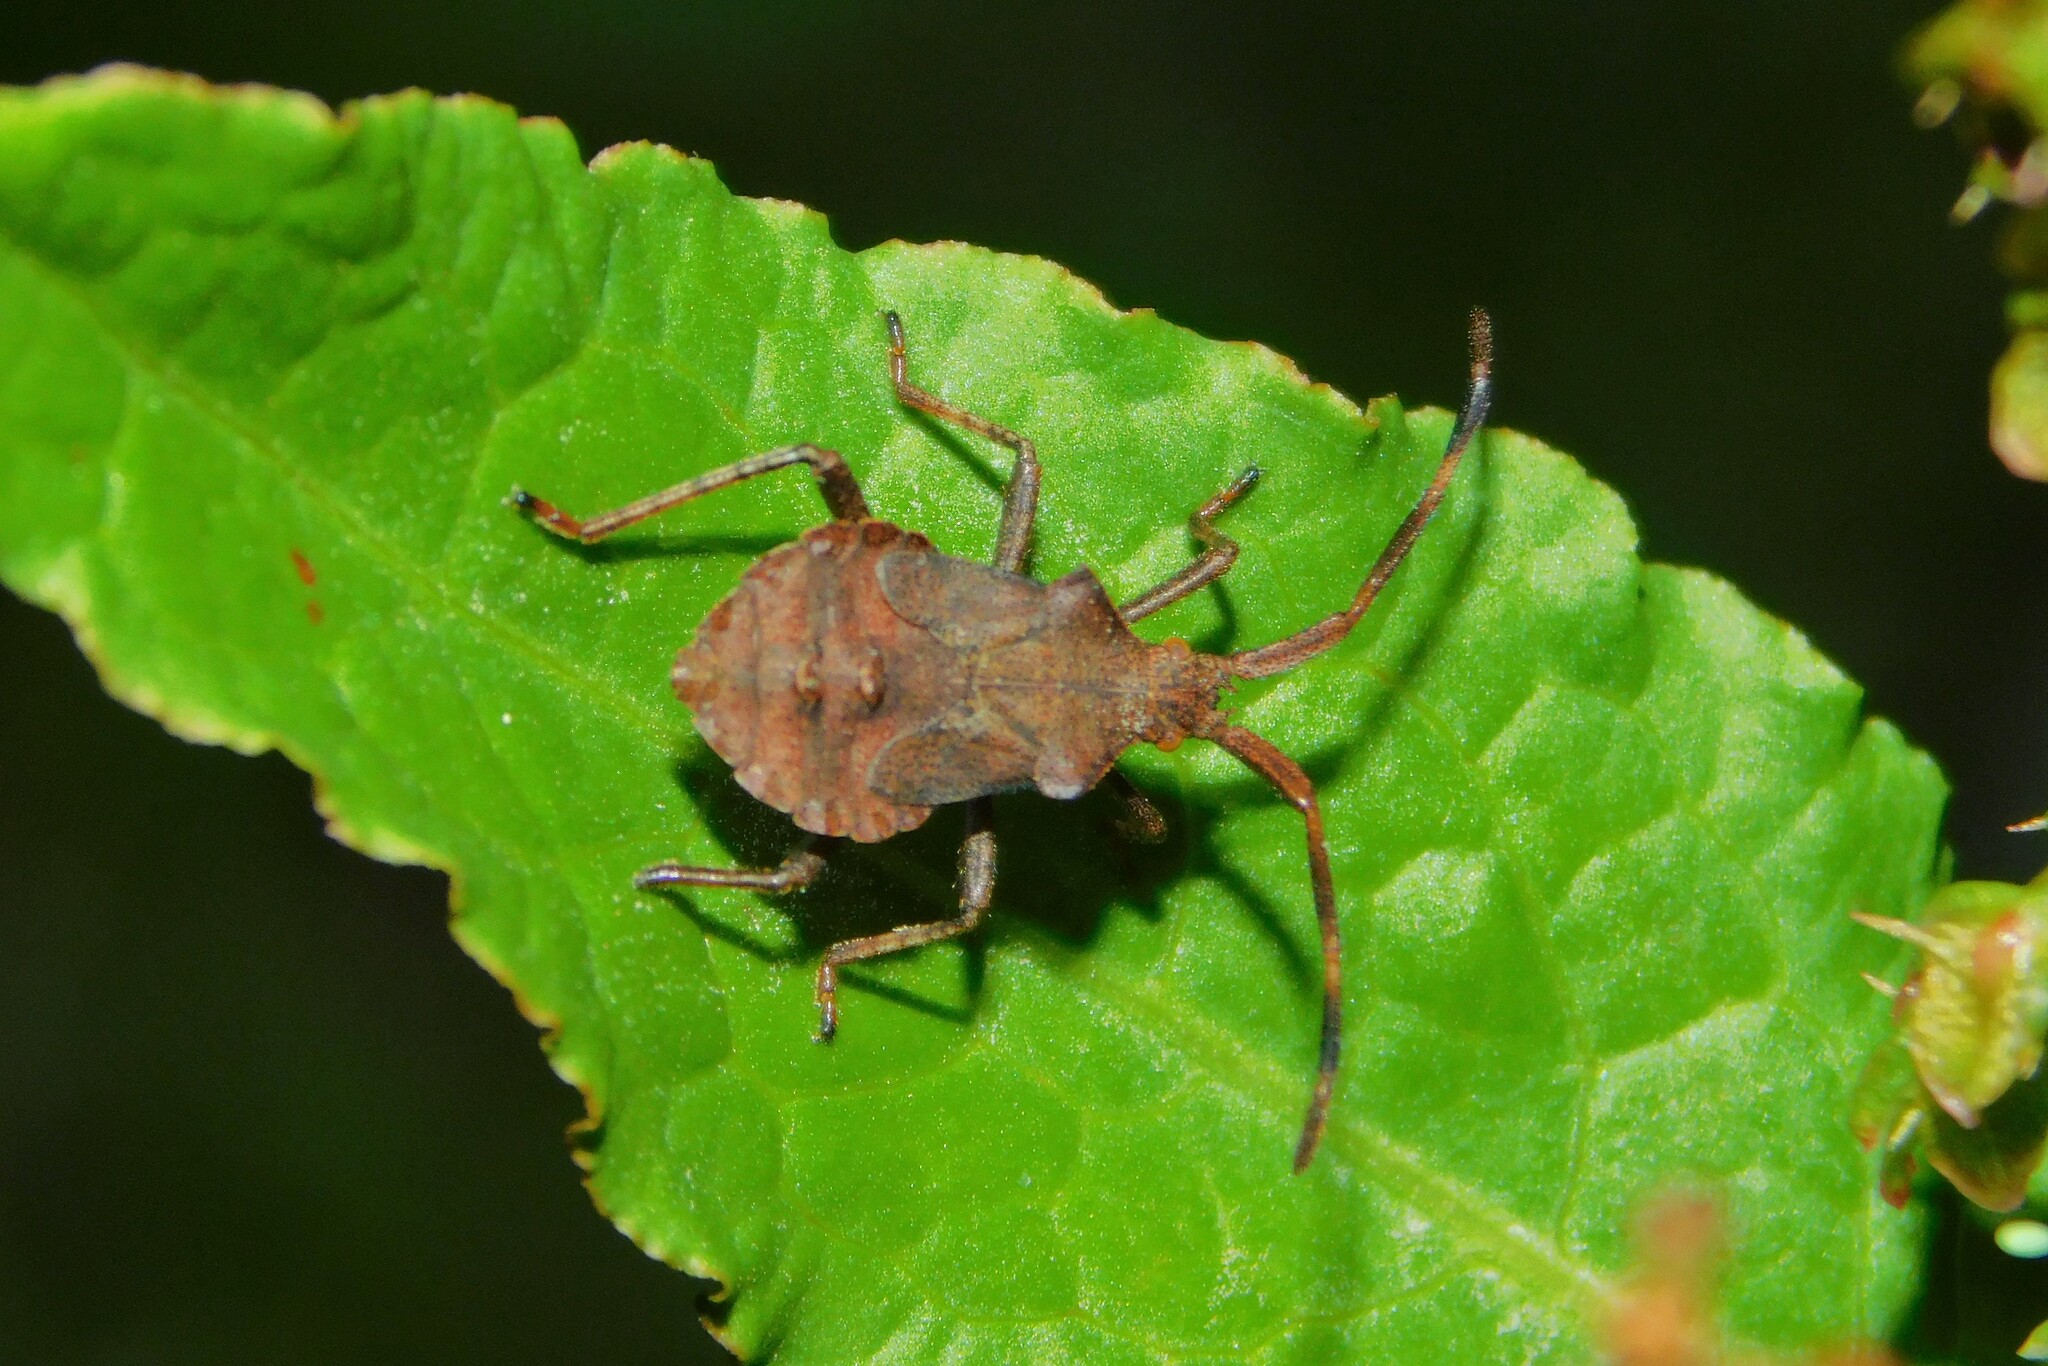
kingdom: Animalia
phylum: Arthropoda
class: Insecta
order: Hemiptera
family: Coreidae
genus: Coreus
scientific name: Coreus marginatus
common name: Dock bug
